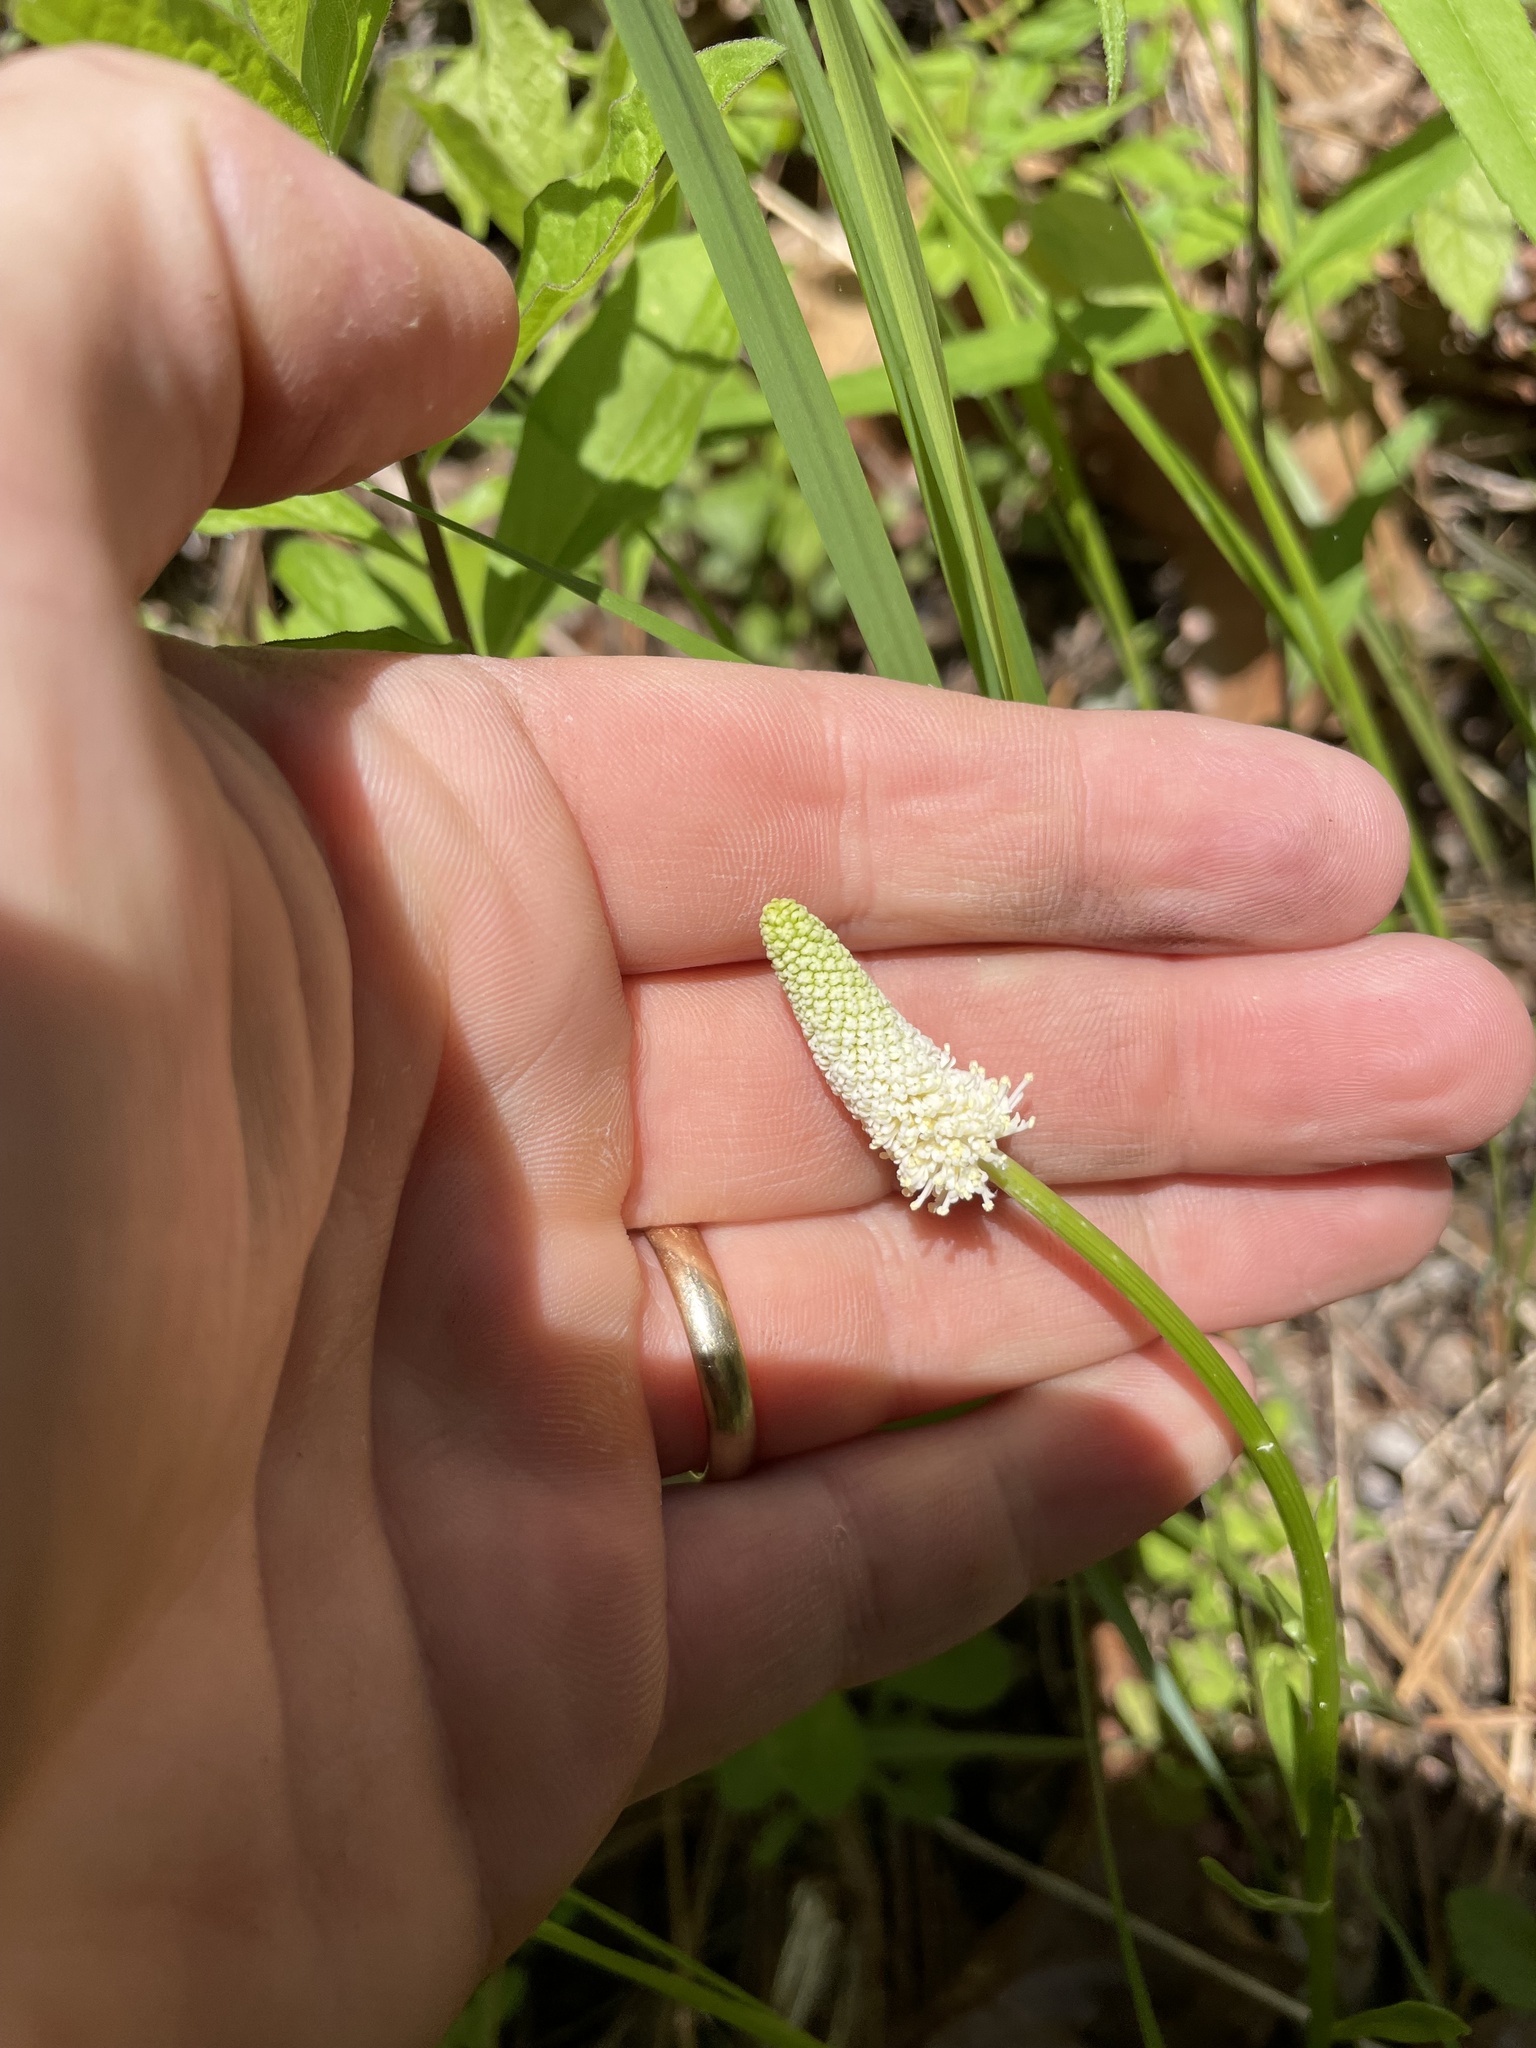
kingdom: Plantae
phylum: Tracheophyta
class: Liliopsida
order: Liliales
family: Melanthiaceae
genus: Chamaelirium
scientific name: Chamaelirium luteum
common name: Fairy-wand
